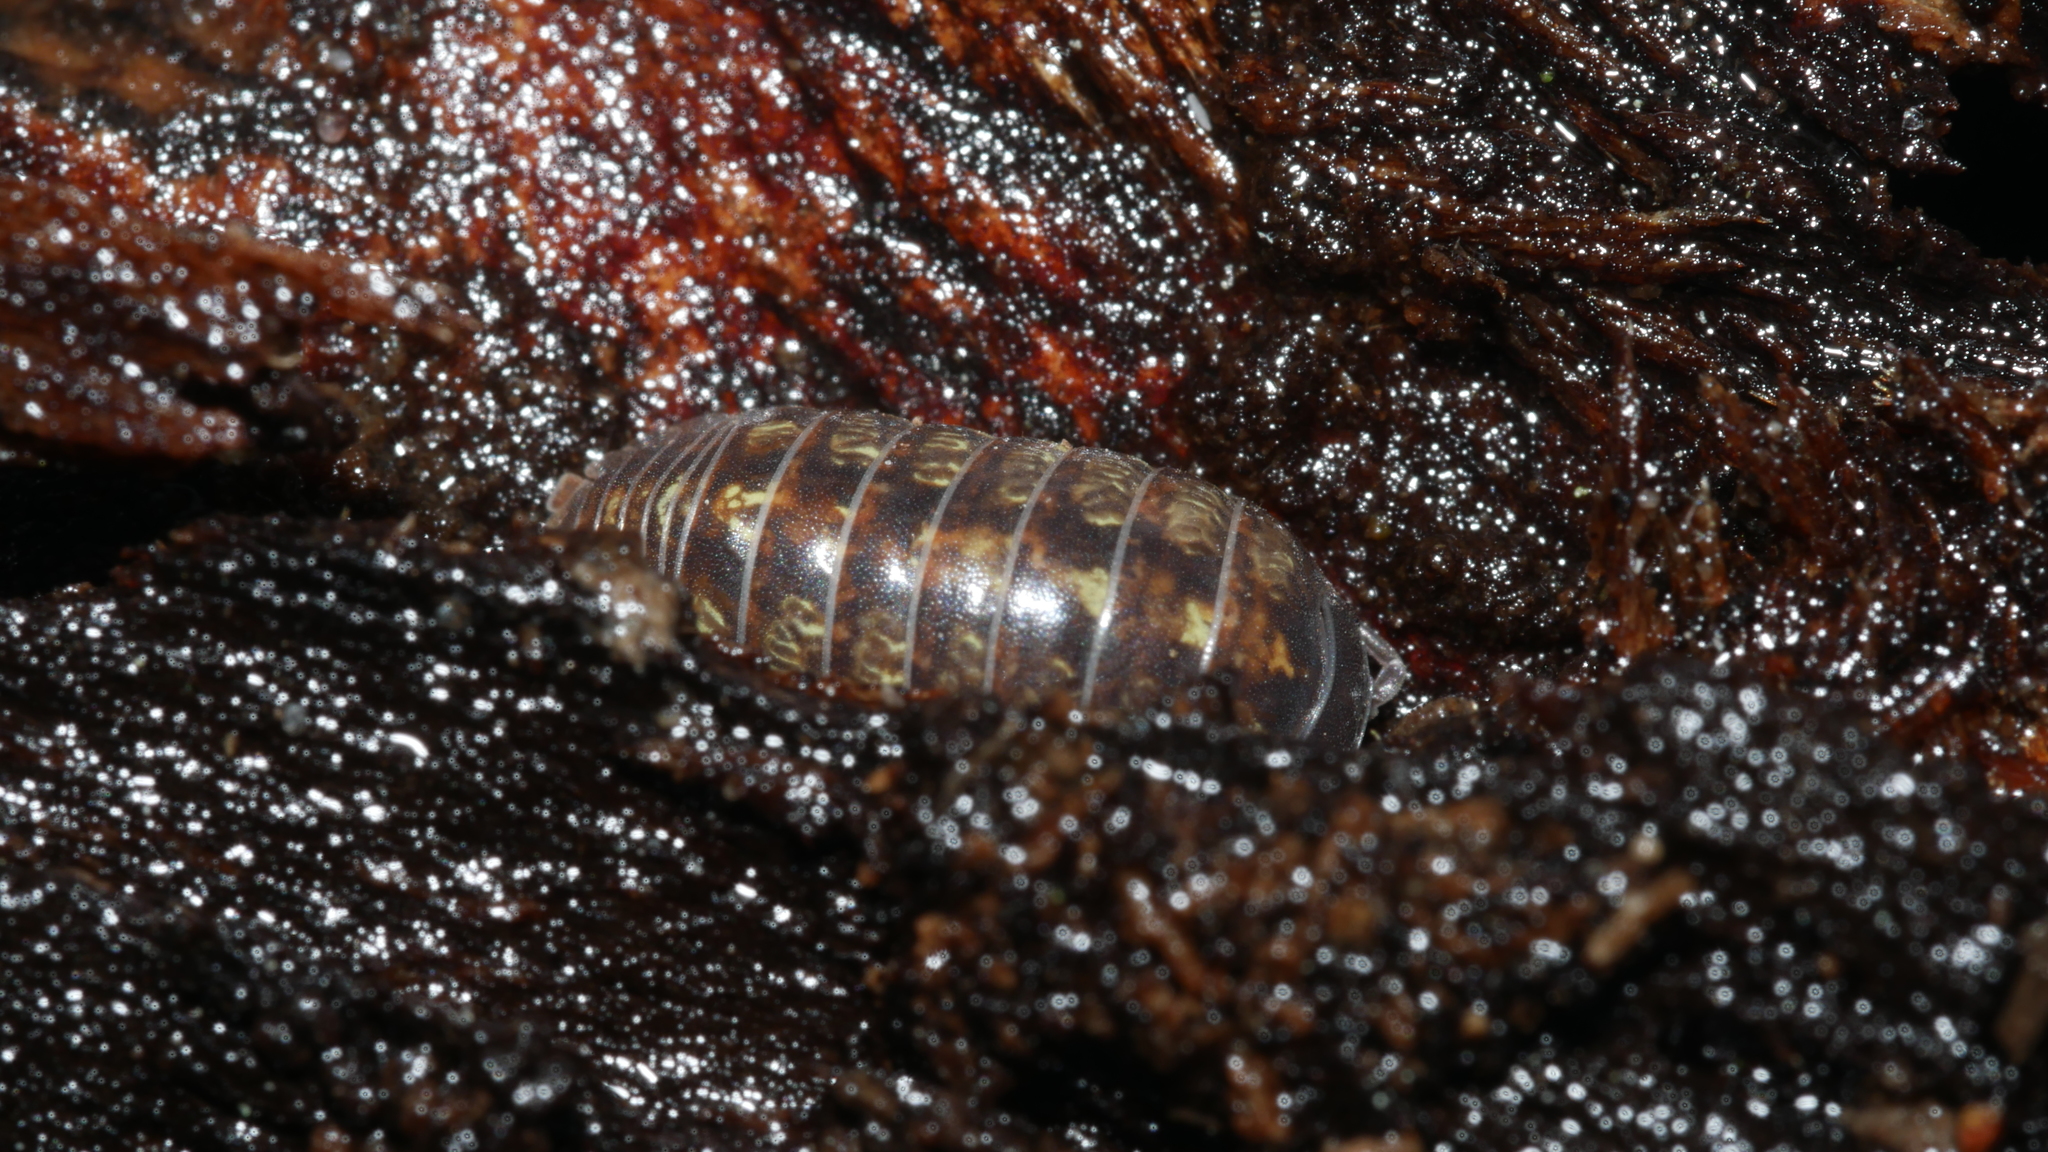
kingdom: Animalia
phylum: Arthropoda
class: Malacostraca
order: Isopoda
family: Armadillidiidae
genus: Armadillidium
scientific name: Armadillidium vulgare
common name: Common pill woodlouse
